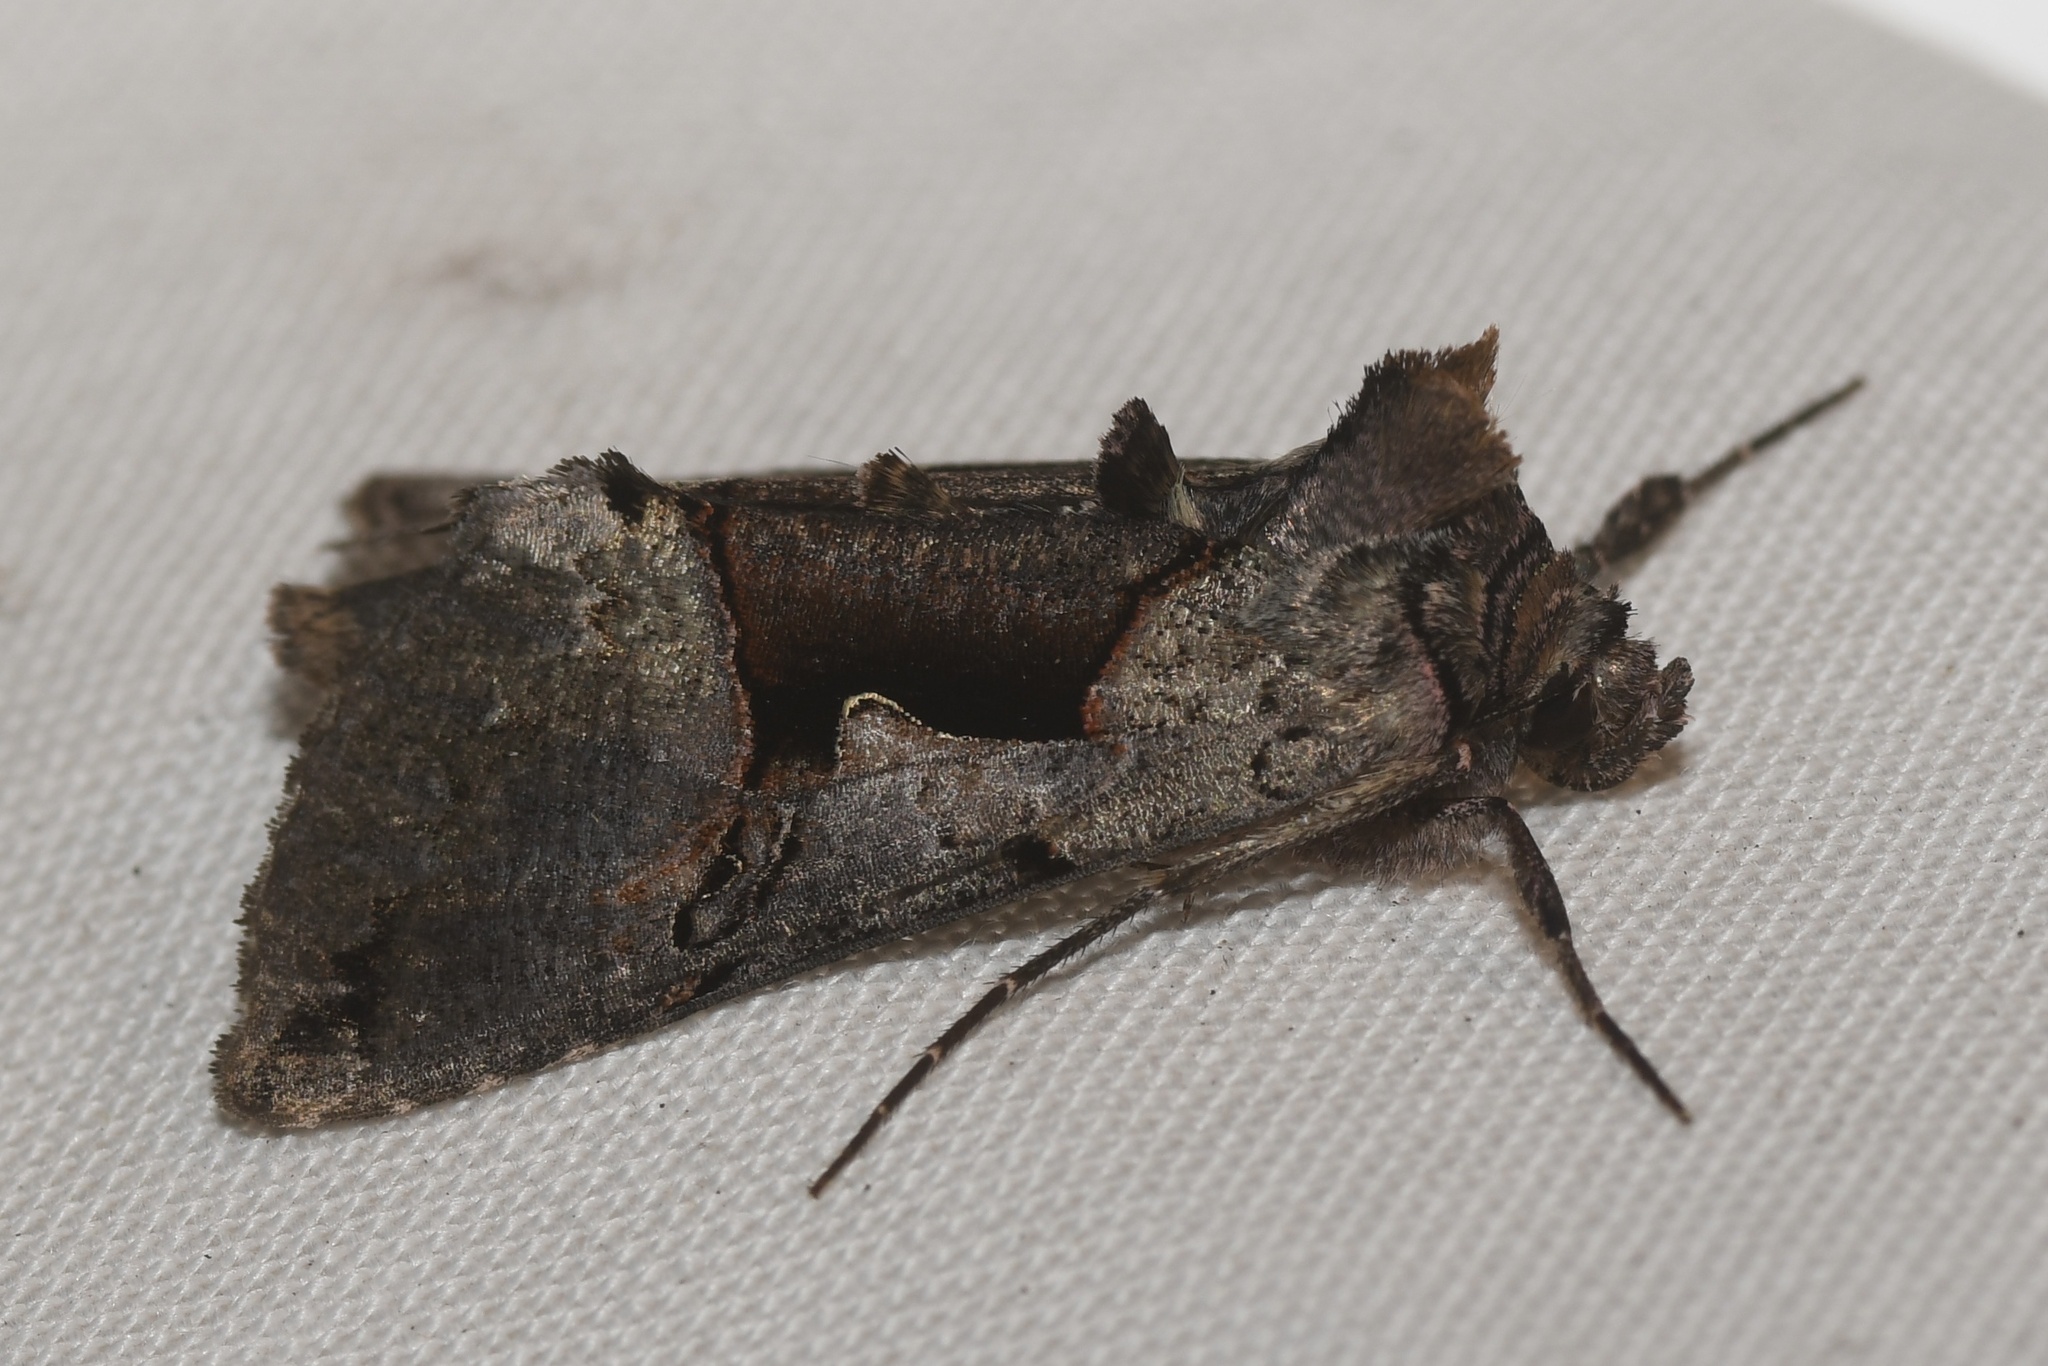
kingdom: Animalia
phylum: Arthropoda
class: Insecta
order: Lepidoptera
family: Noctuidae
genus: Autographa
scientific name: Autographa ampla
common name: Large looper moth
